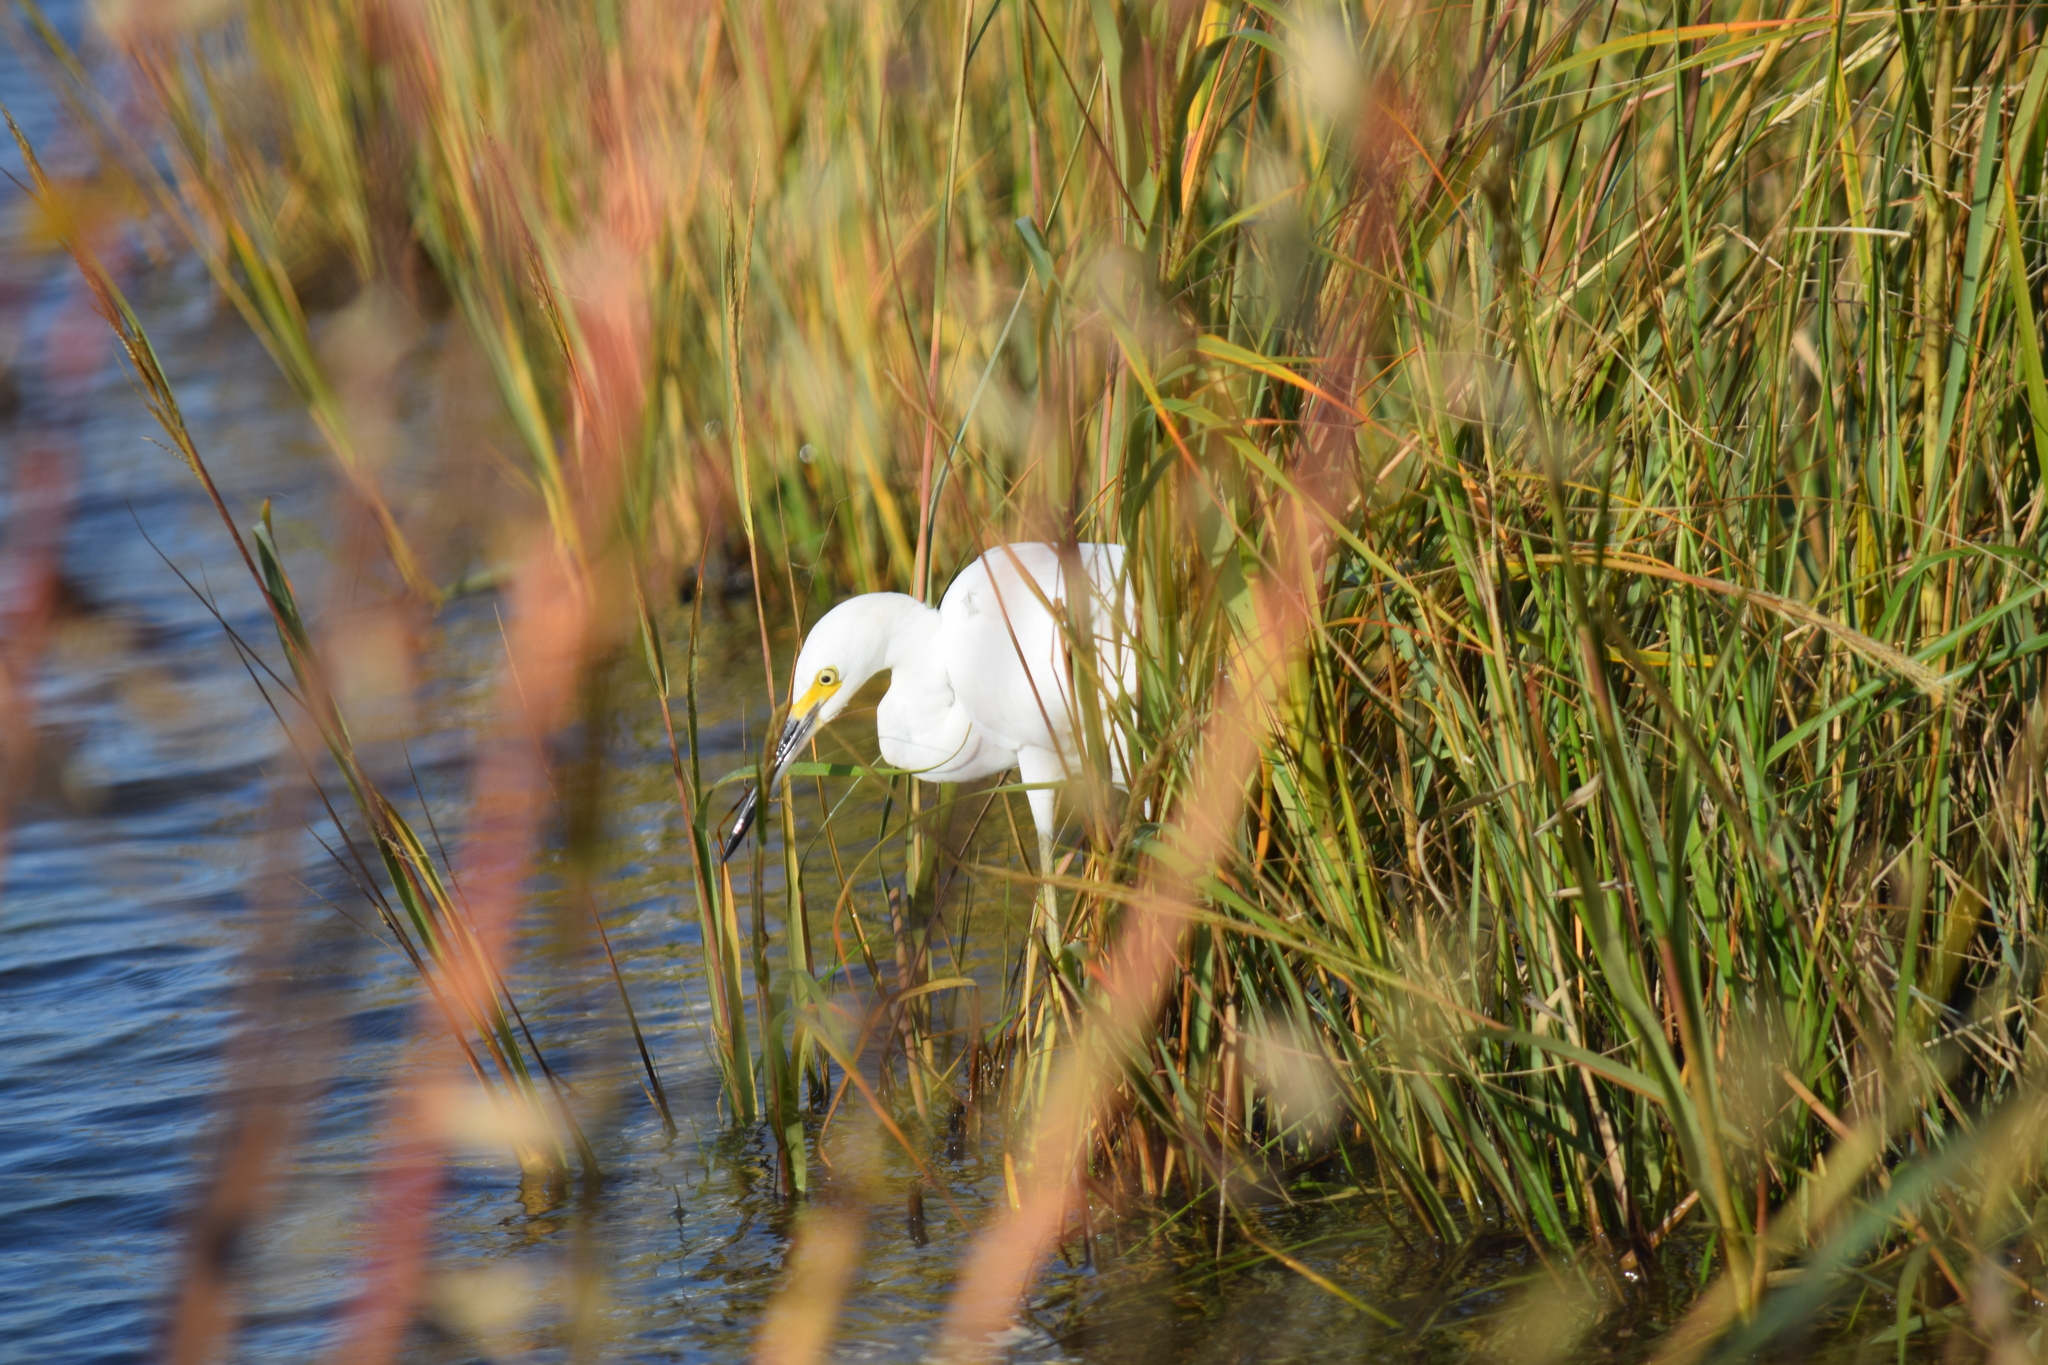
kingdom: Animalia
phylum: Chordata
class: Aves
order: Pelecaniformes
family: Ardeidae
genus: Egretta
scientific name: Egretta thula
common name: Snowy egret
